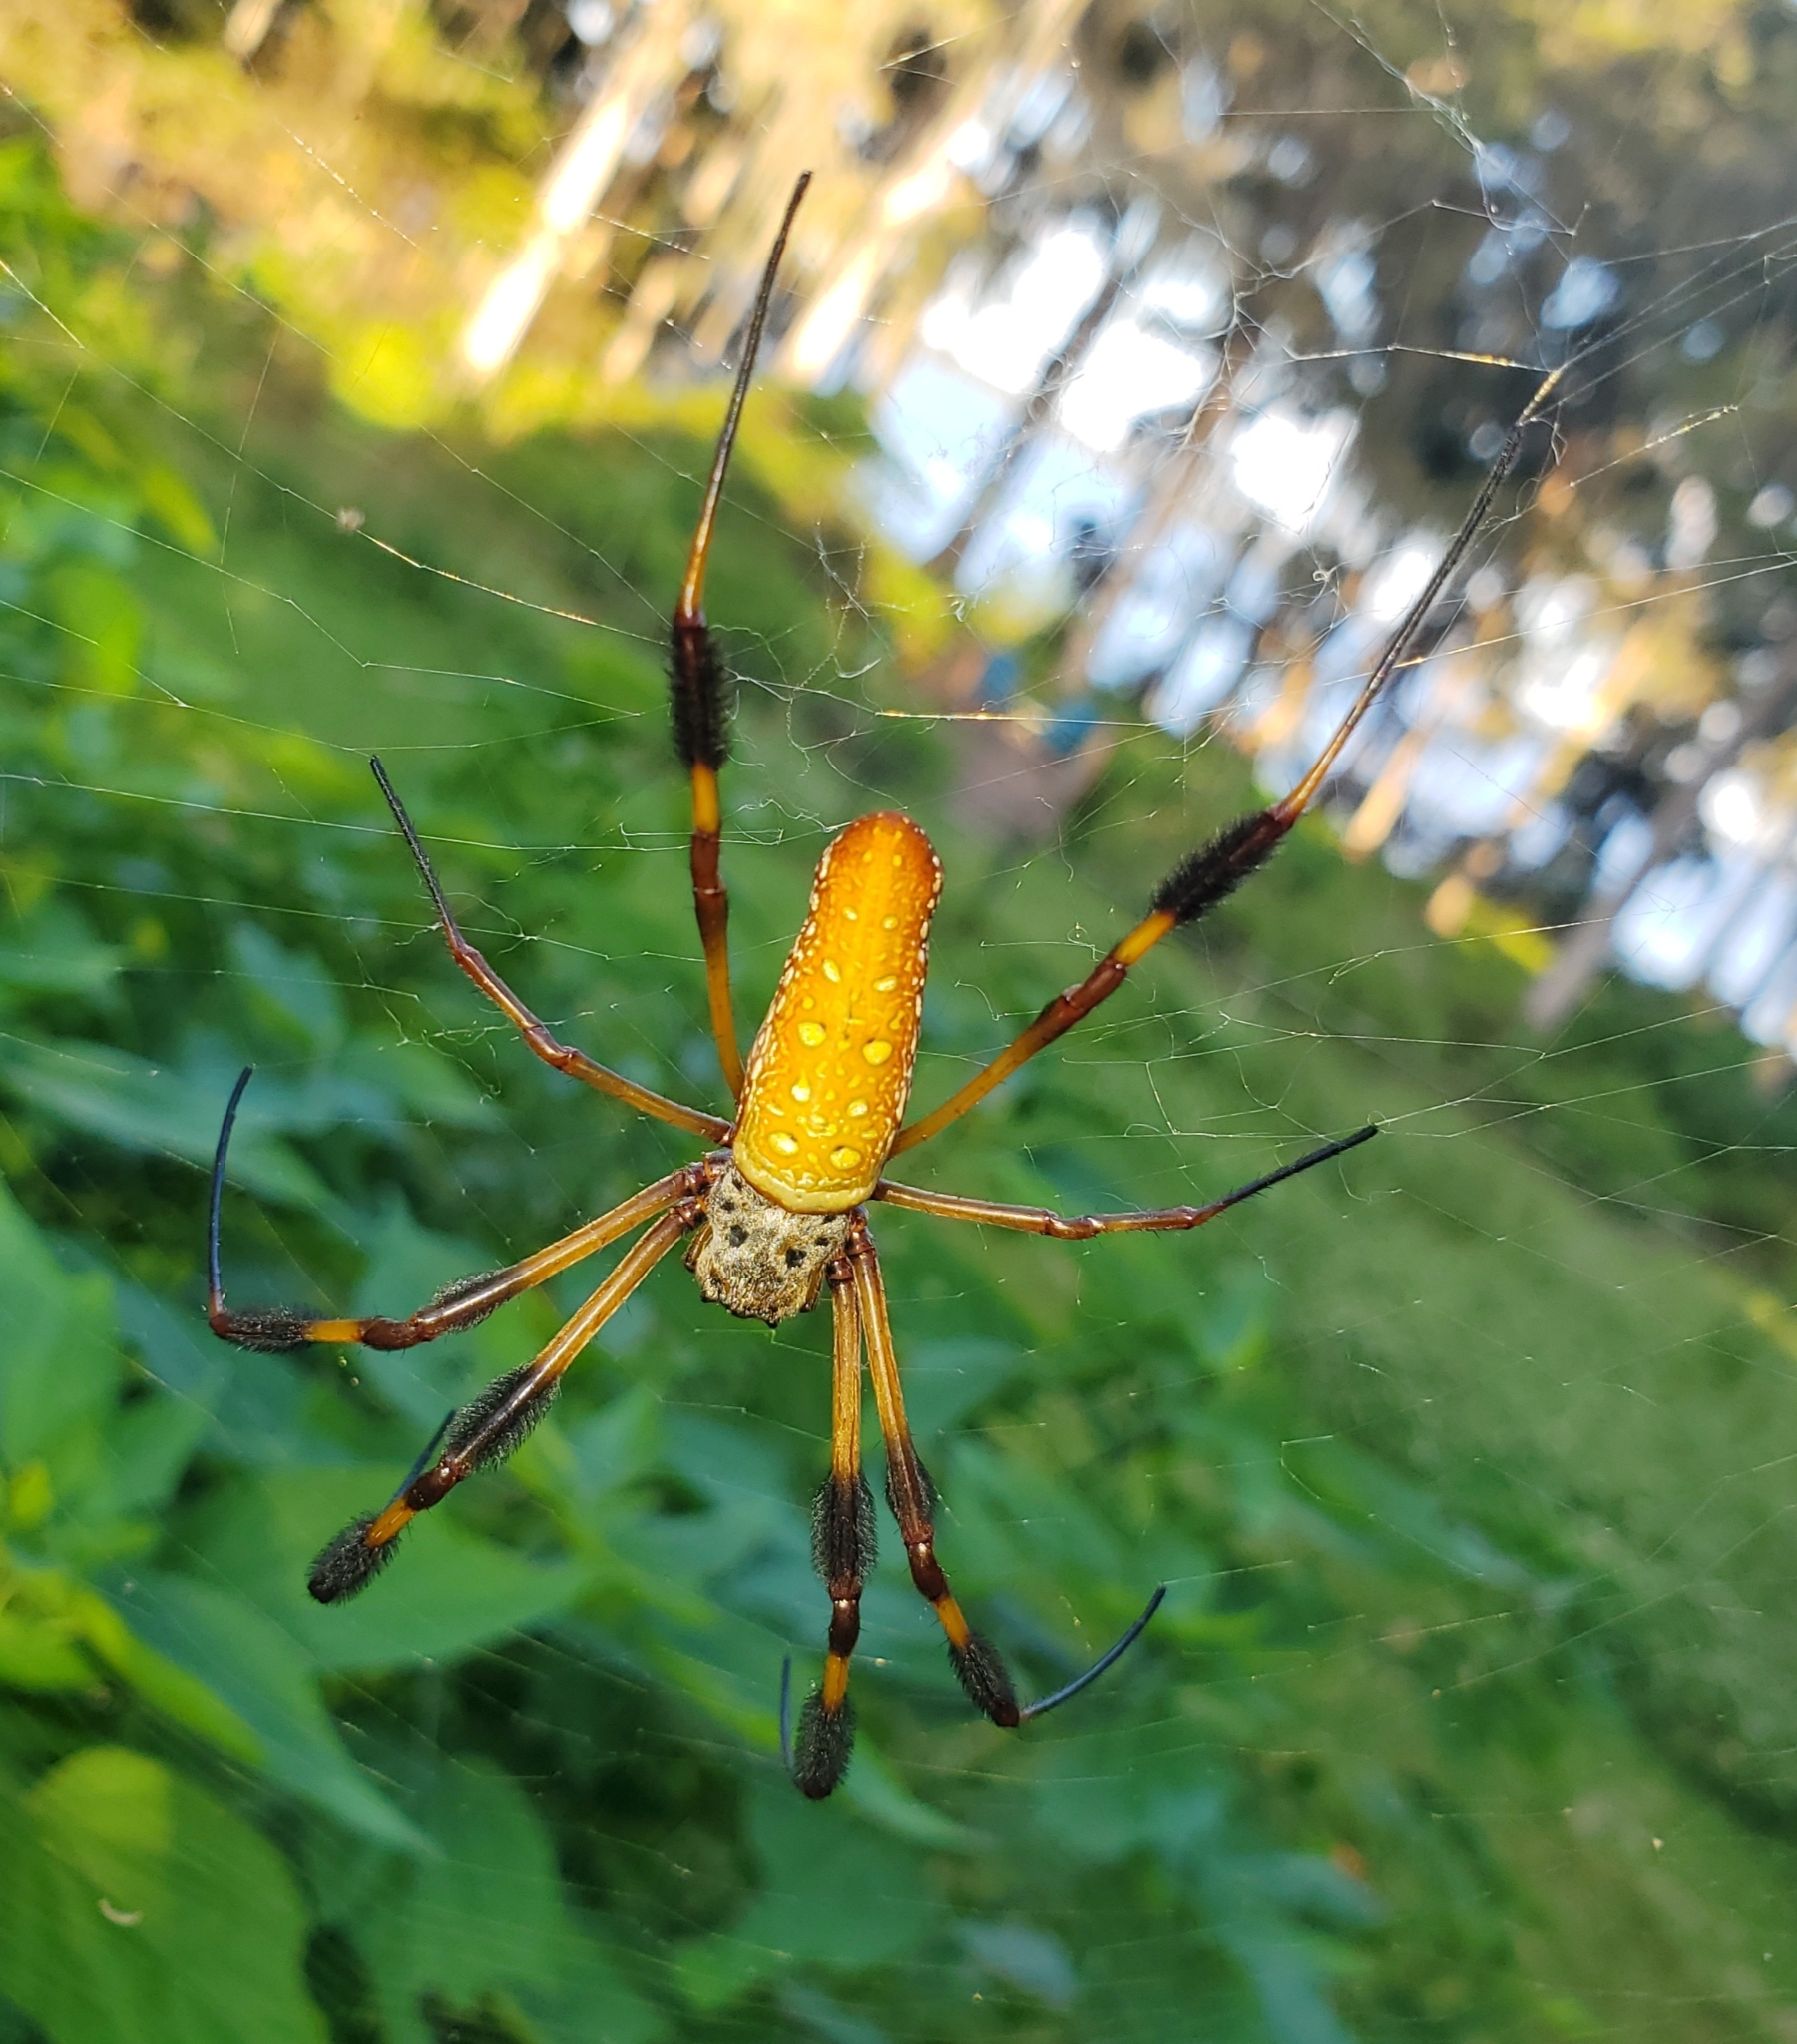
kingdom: Animalia
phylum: Arthropoda
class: Arachnida
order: Araneae
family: Araneidae
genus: Trichonephila
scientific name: Trichonephila clavipes
